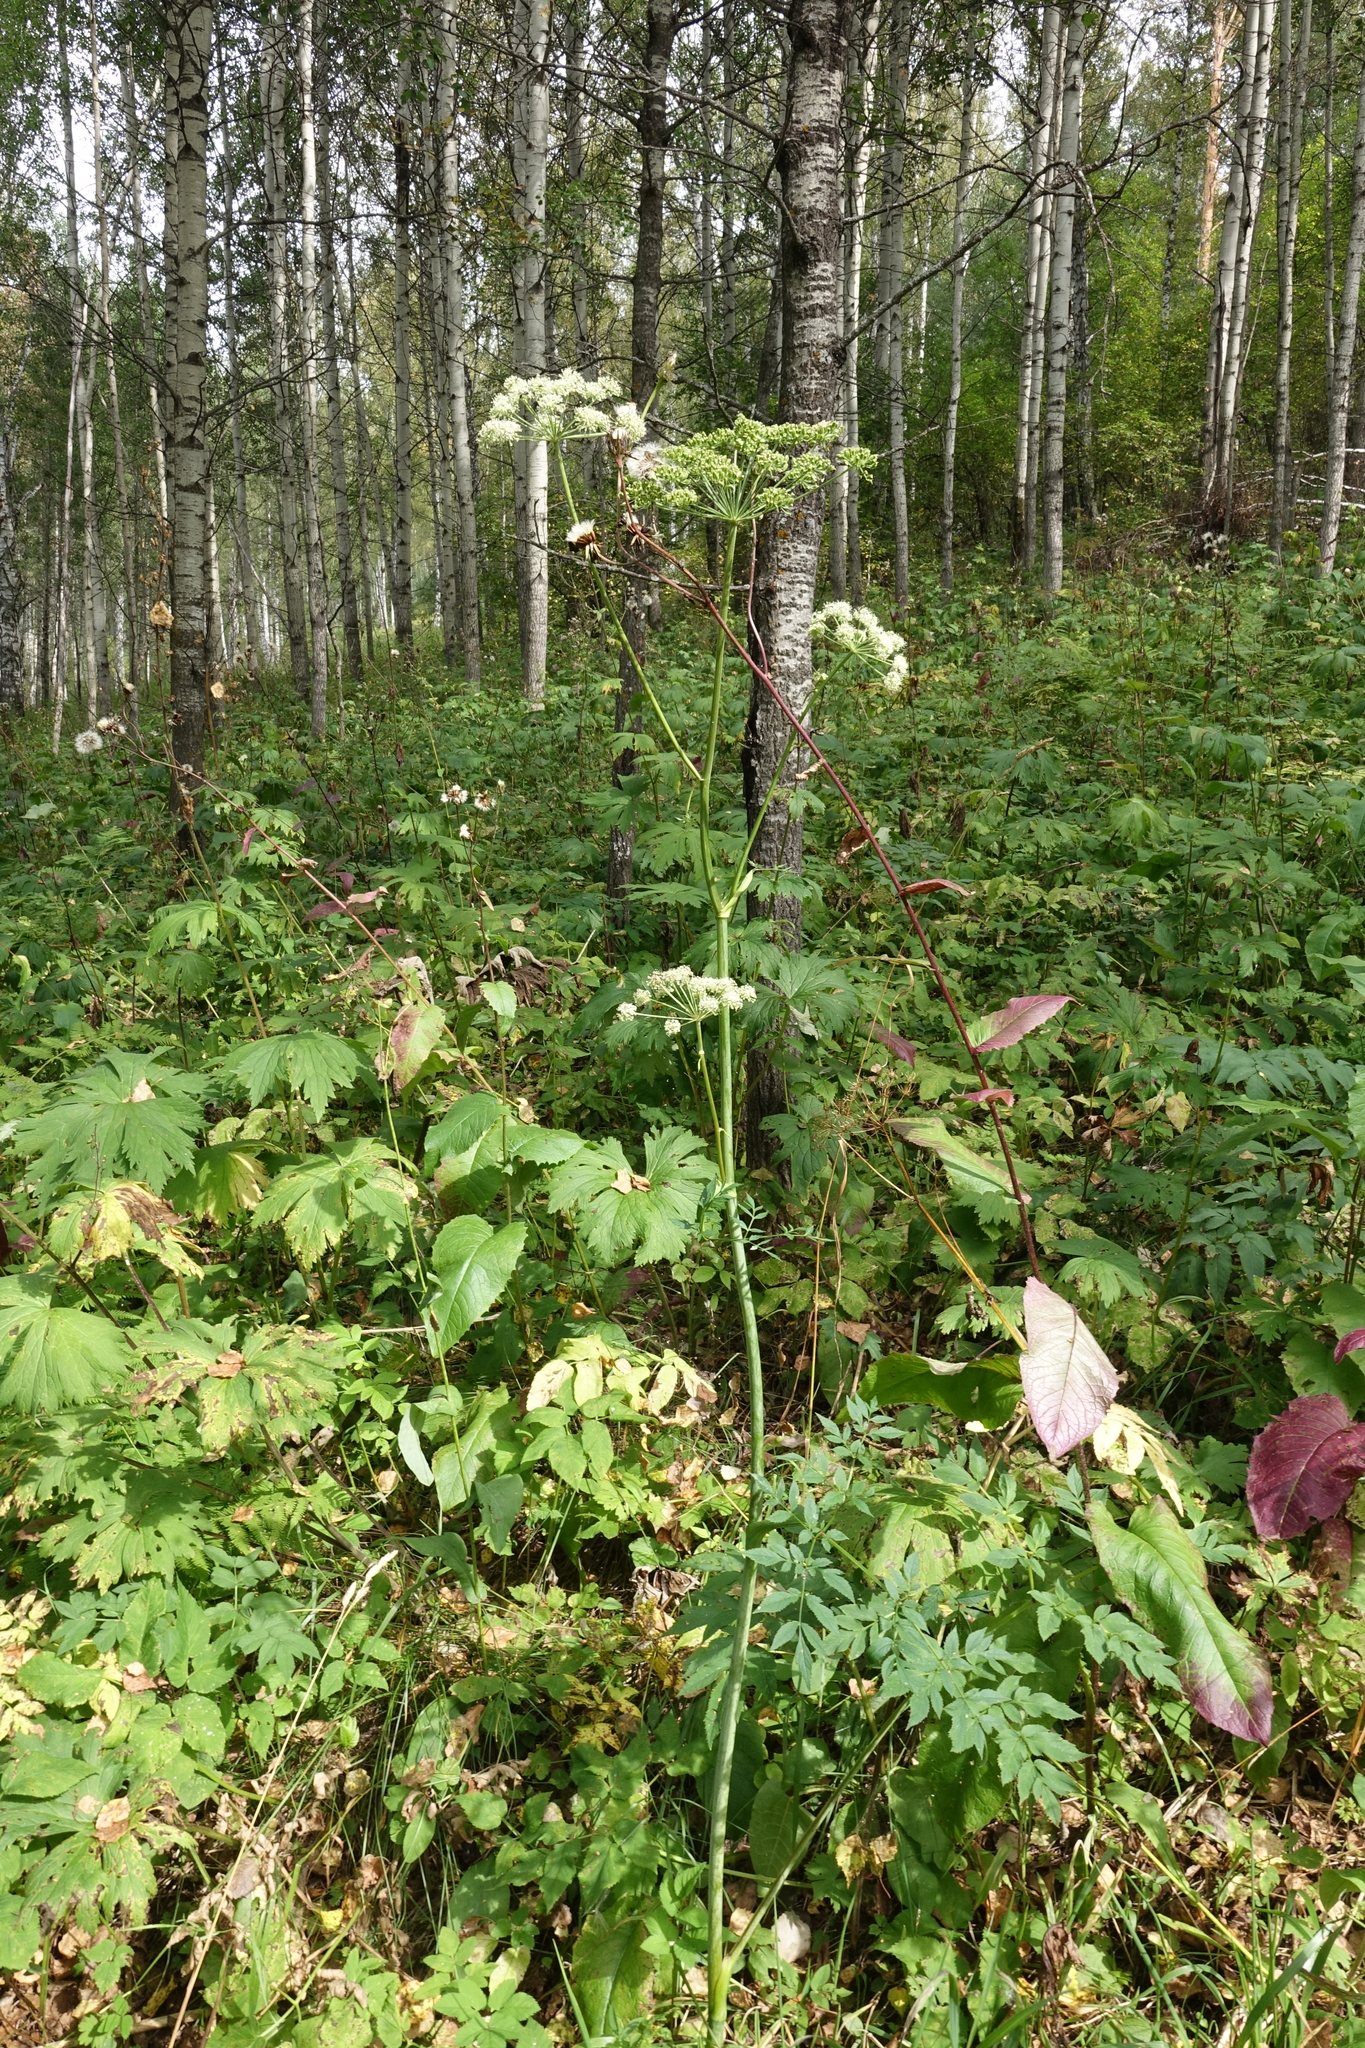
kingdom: Plantae
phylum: Tracheophyta
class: Magnoliopsida
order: Apiales
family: Apiaceae
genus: Angelica
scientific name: Angelica sylvestris
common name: Wild angelica
